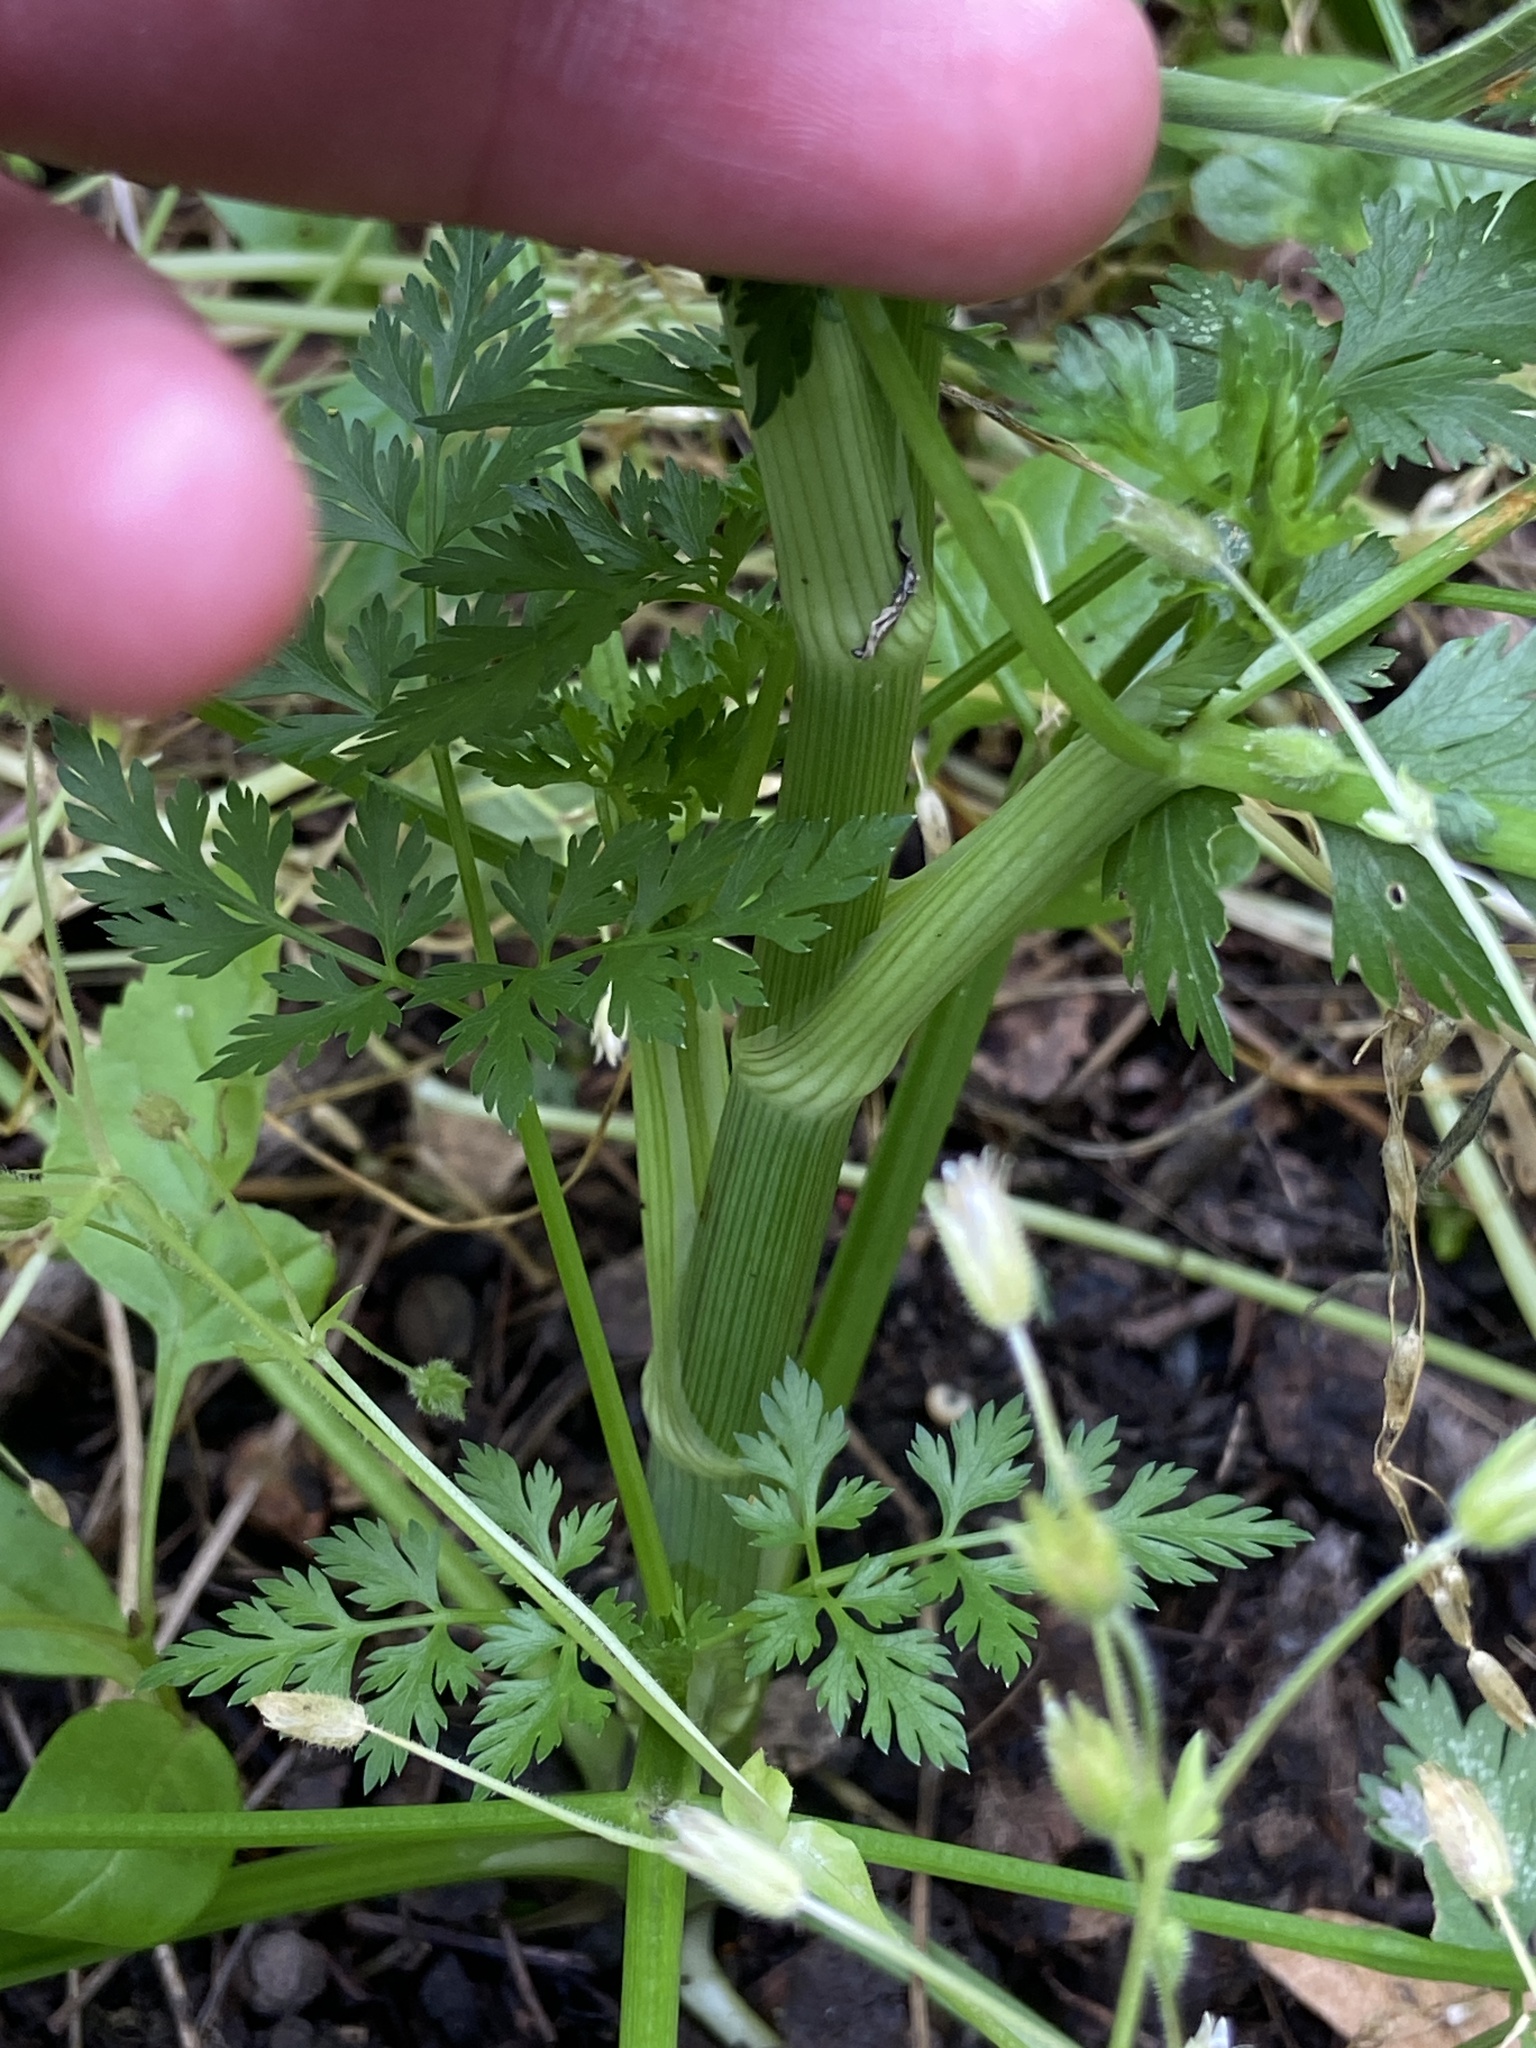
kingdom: Plantae
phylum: Tracheophyta
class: Magnoliopsida
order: Apiales
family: Apiaceae
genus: Aethusa
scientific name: Aethusa cynapium
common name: Fool's parsley
